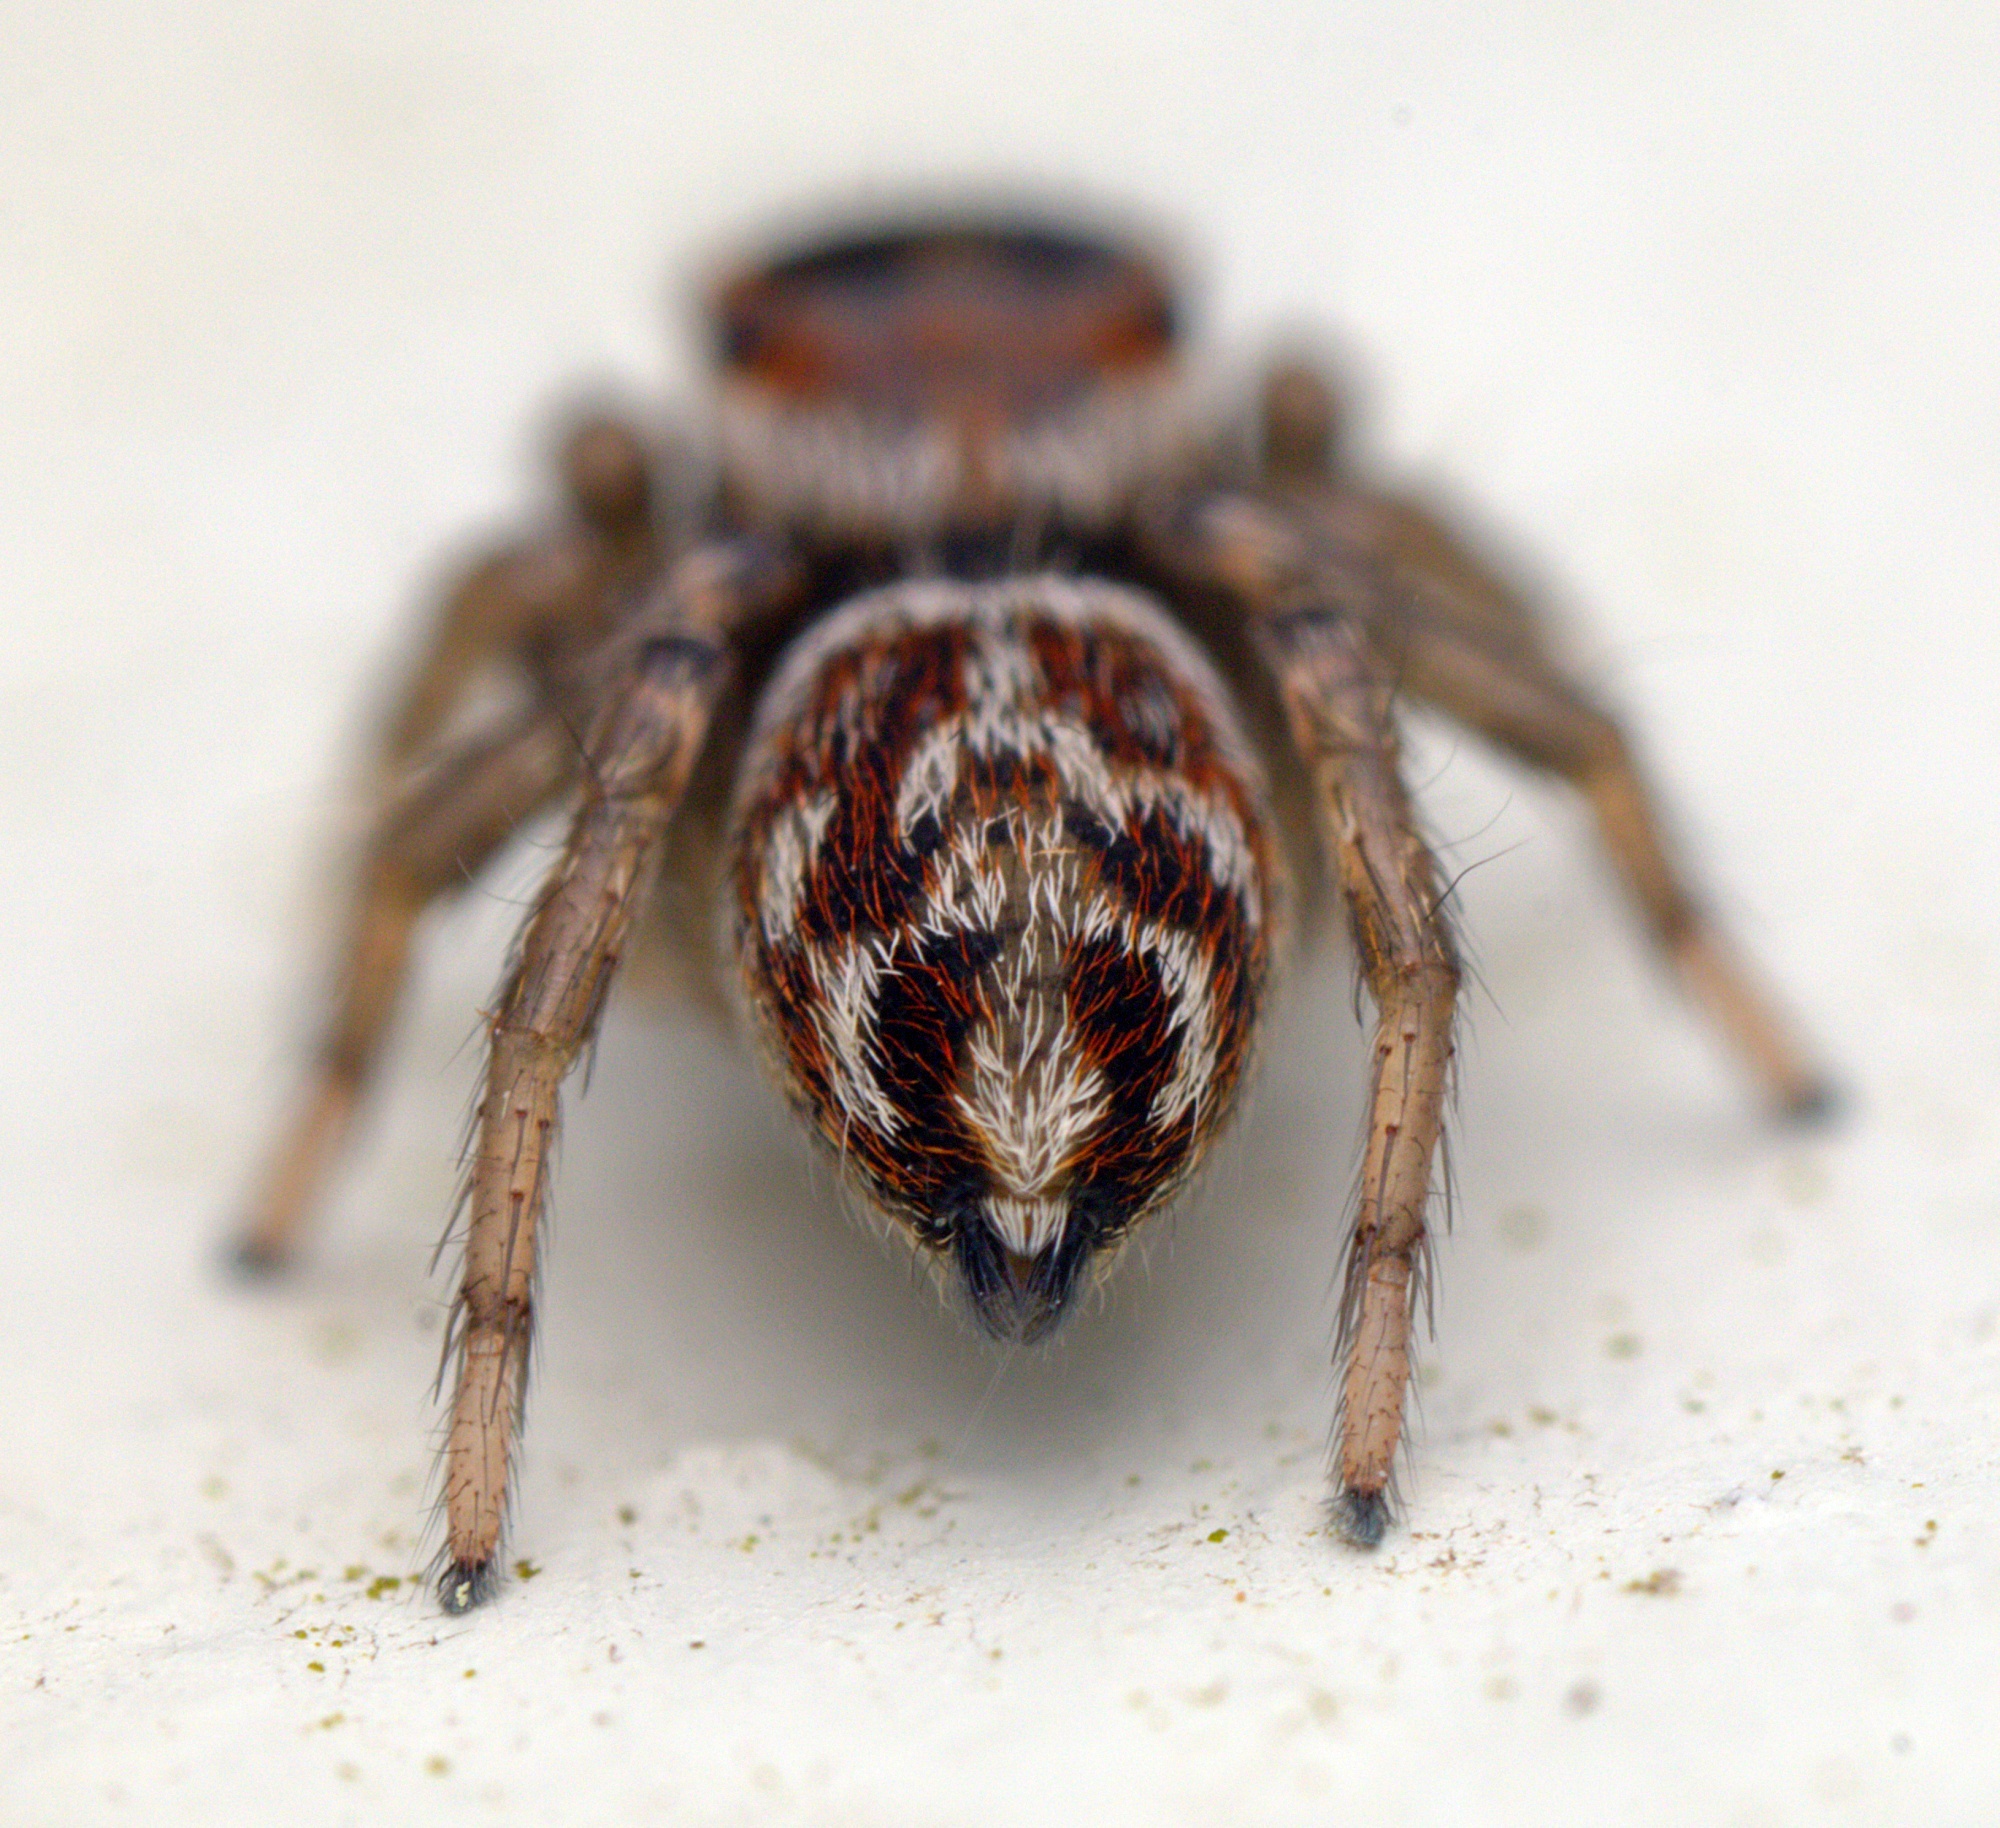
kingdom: Animalia
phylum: Arthropoda
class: Arachnida
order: Araneae
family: Salticidae
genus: Maratus
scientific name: Maratus griseus
